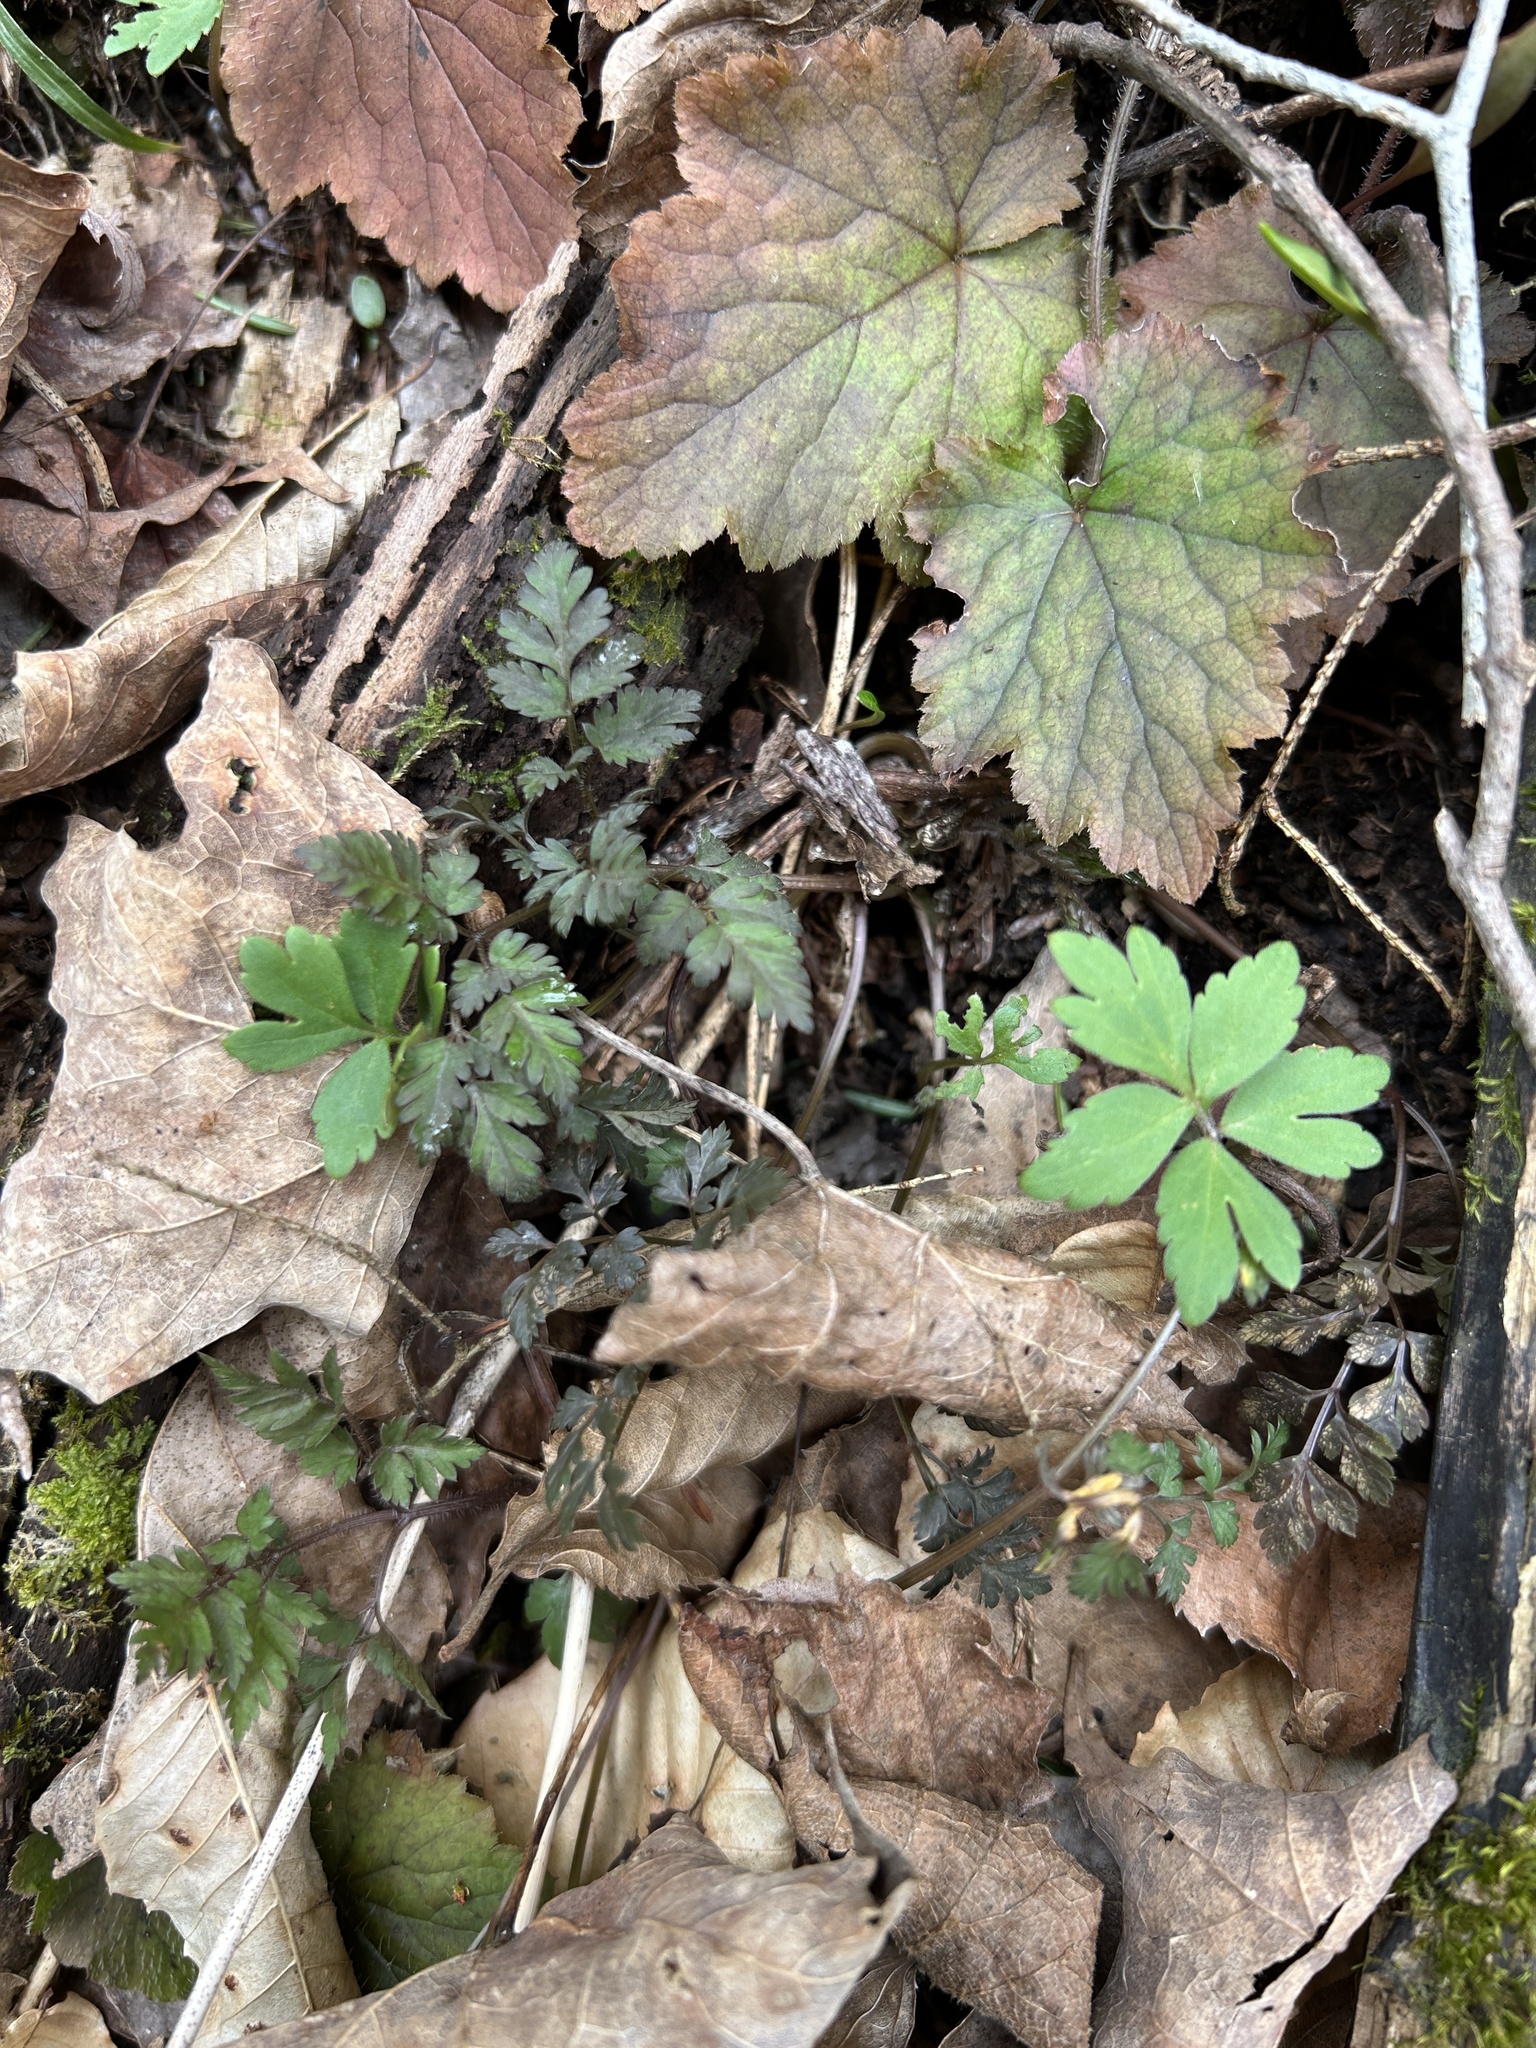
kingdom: Fungi
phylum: Basidiomycota
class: Pucciniomycetes
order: Pucciniales
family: Pucciniaceae
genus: Puccinia
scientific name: Puccinia pimpinellae
